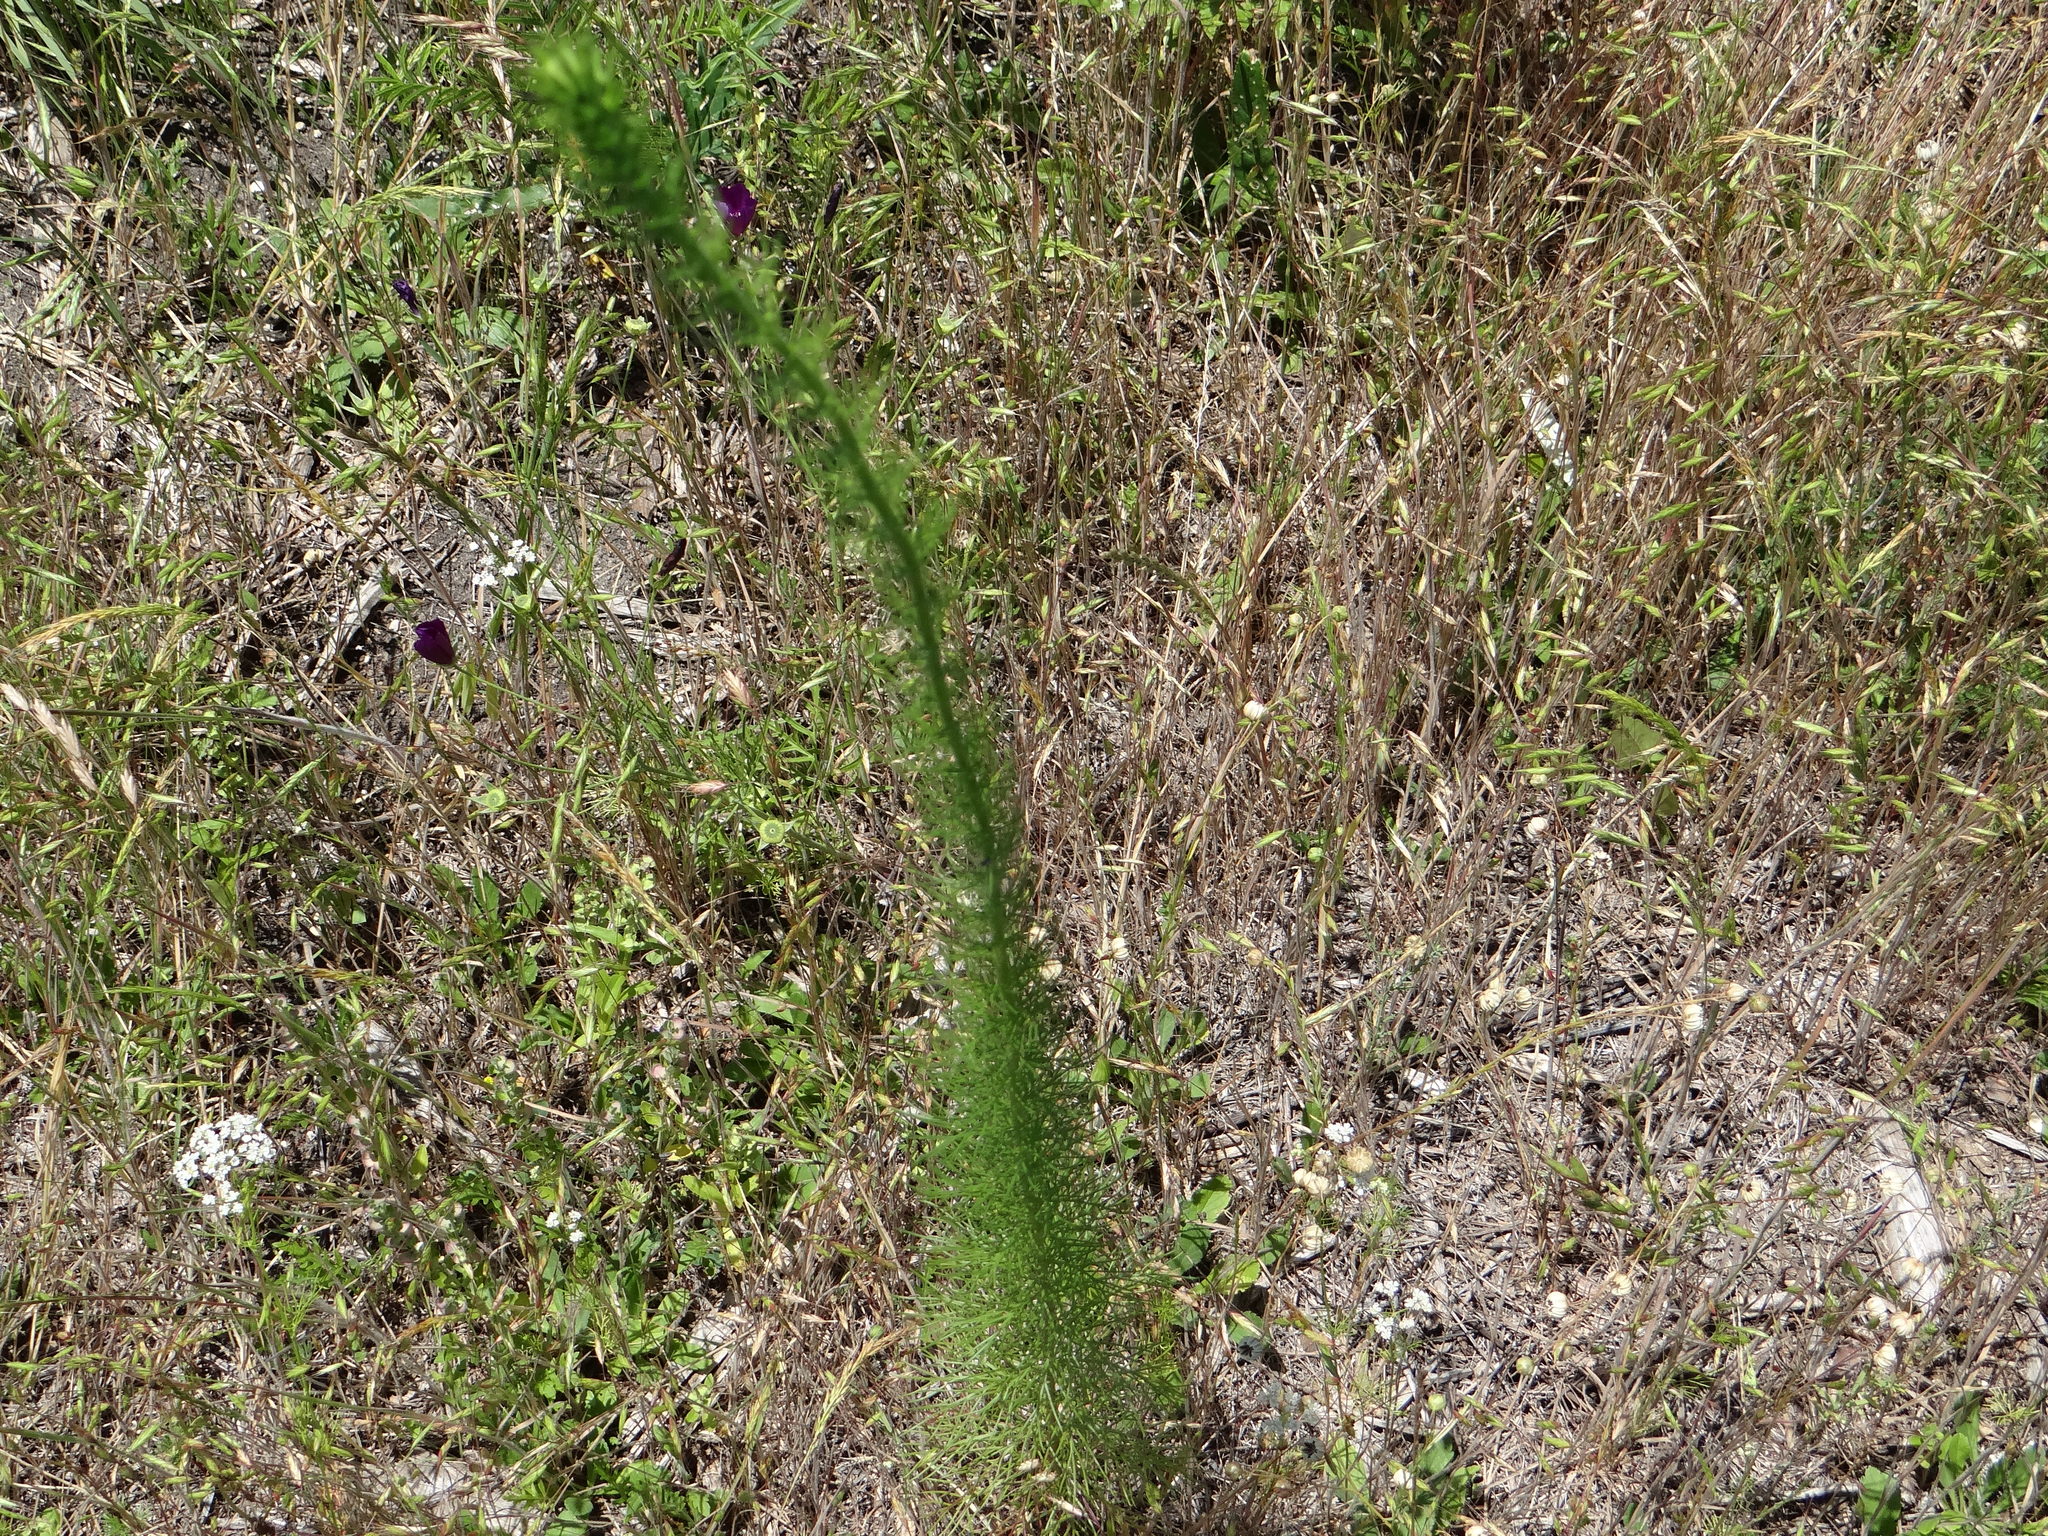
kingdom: Plantae
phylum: Tracheophyta
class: Magnoliopsida
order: Ericales
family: Polemoniaceae
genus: Ipomopsis
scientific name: Ipomopsis rubra
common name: Skyrocket
